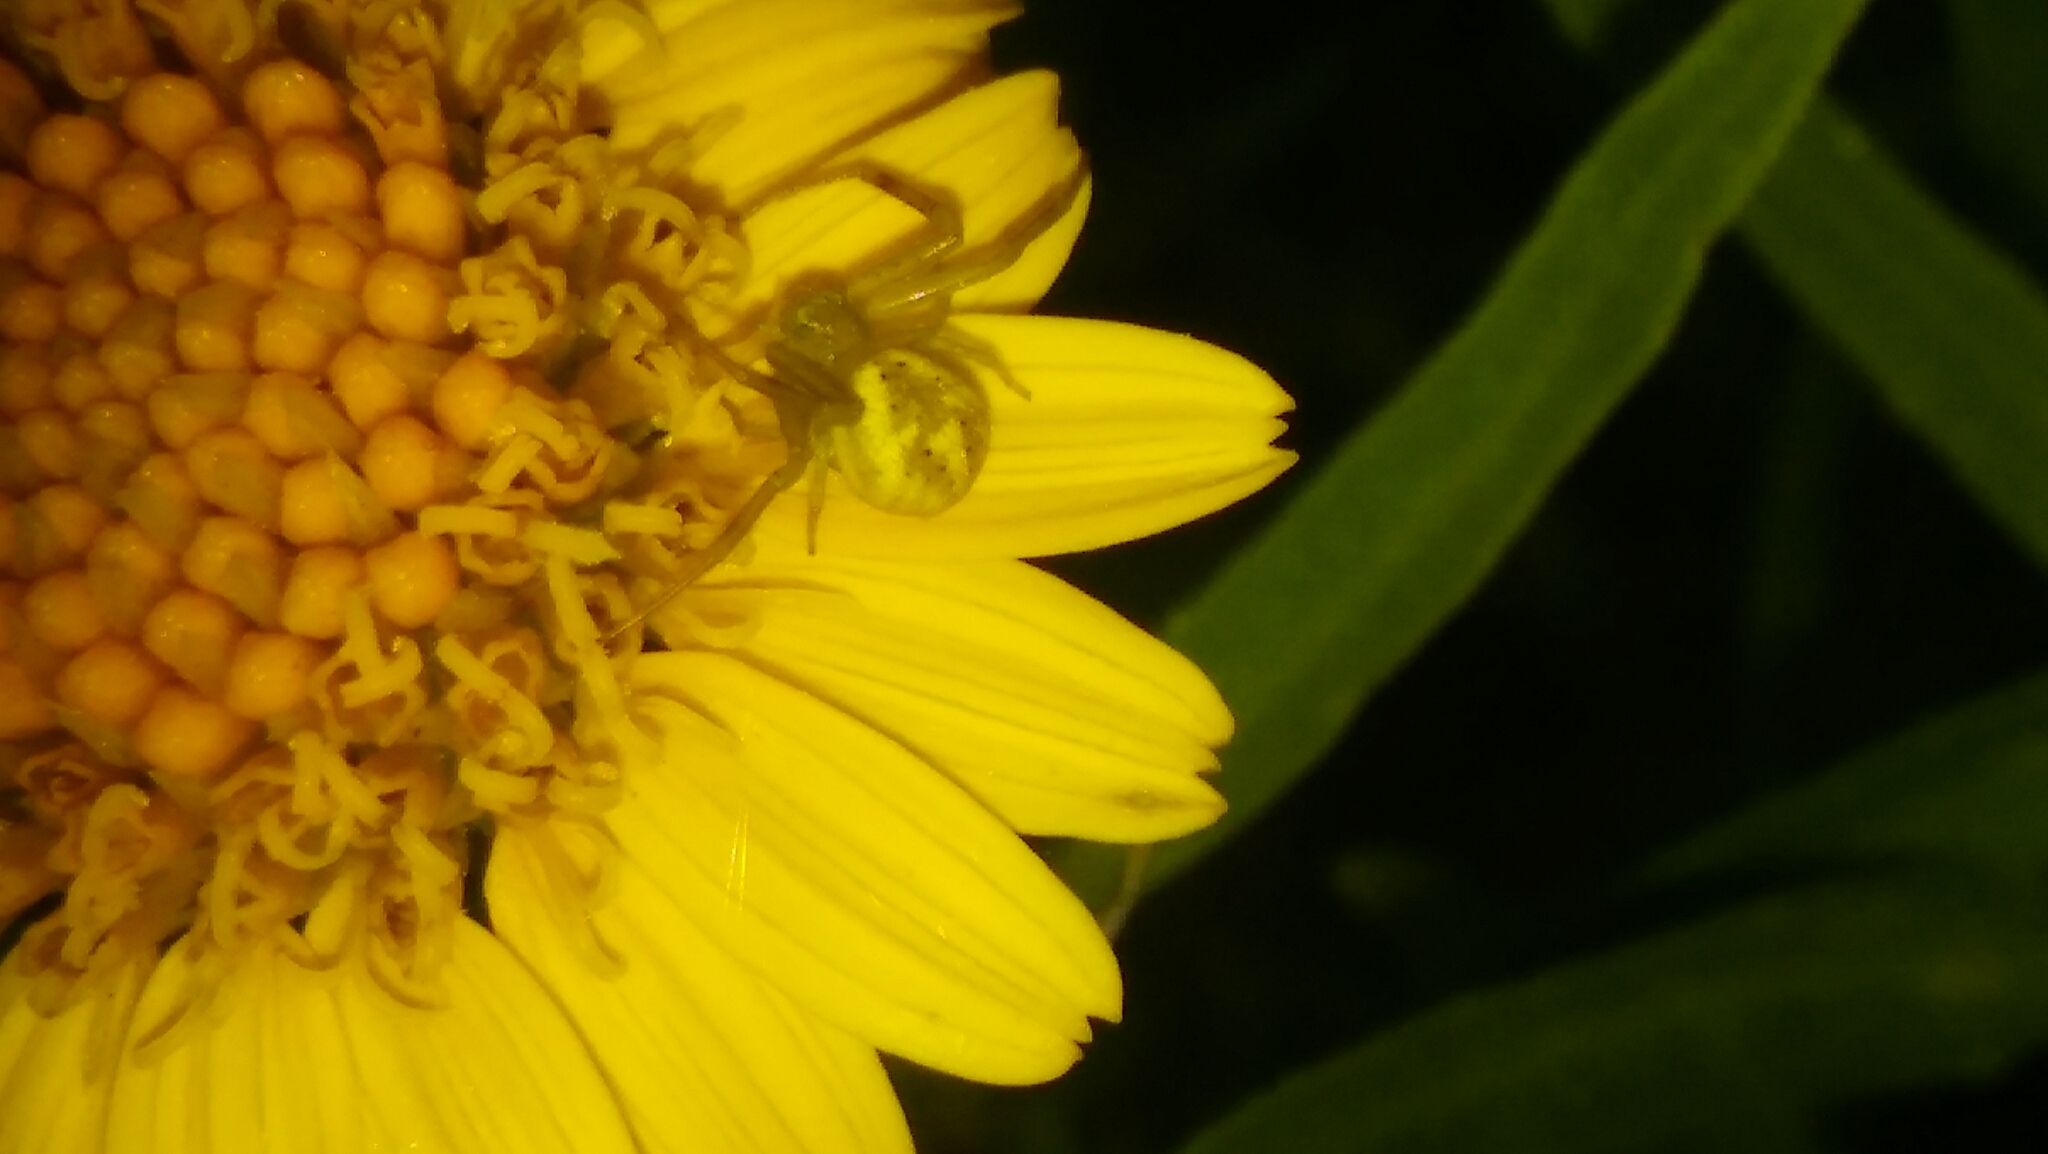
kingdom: Animalia
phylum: Arthropoda
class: Arachnida
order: Araneae
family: Thomisidae
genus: Misumenops
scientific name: Misumenops
